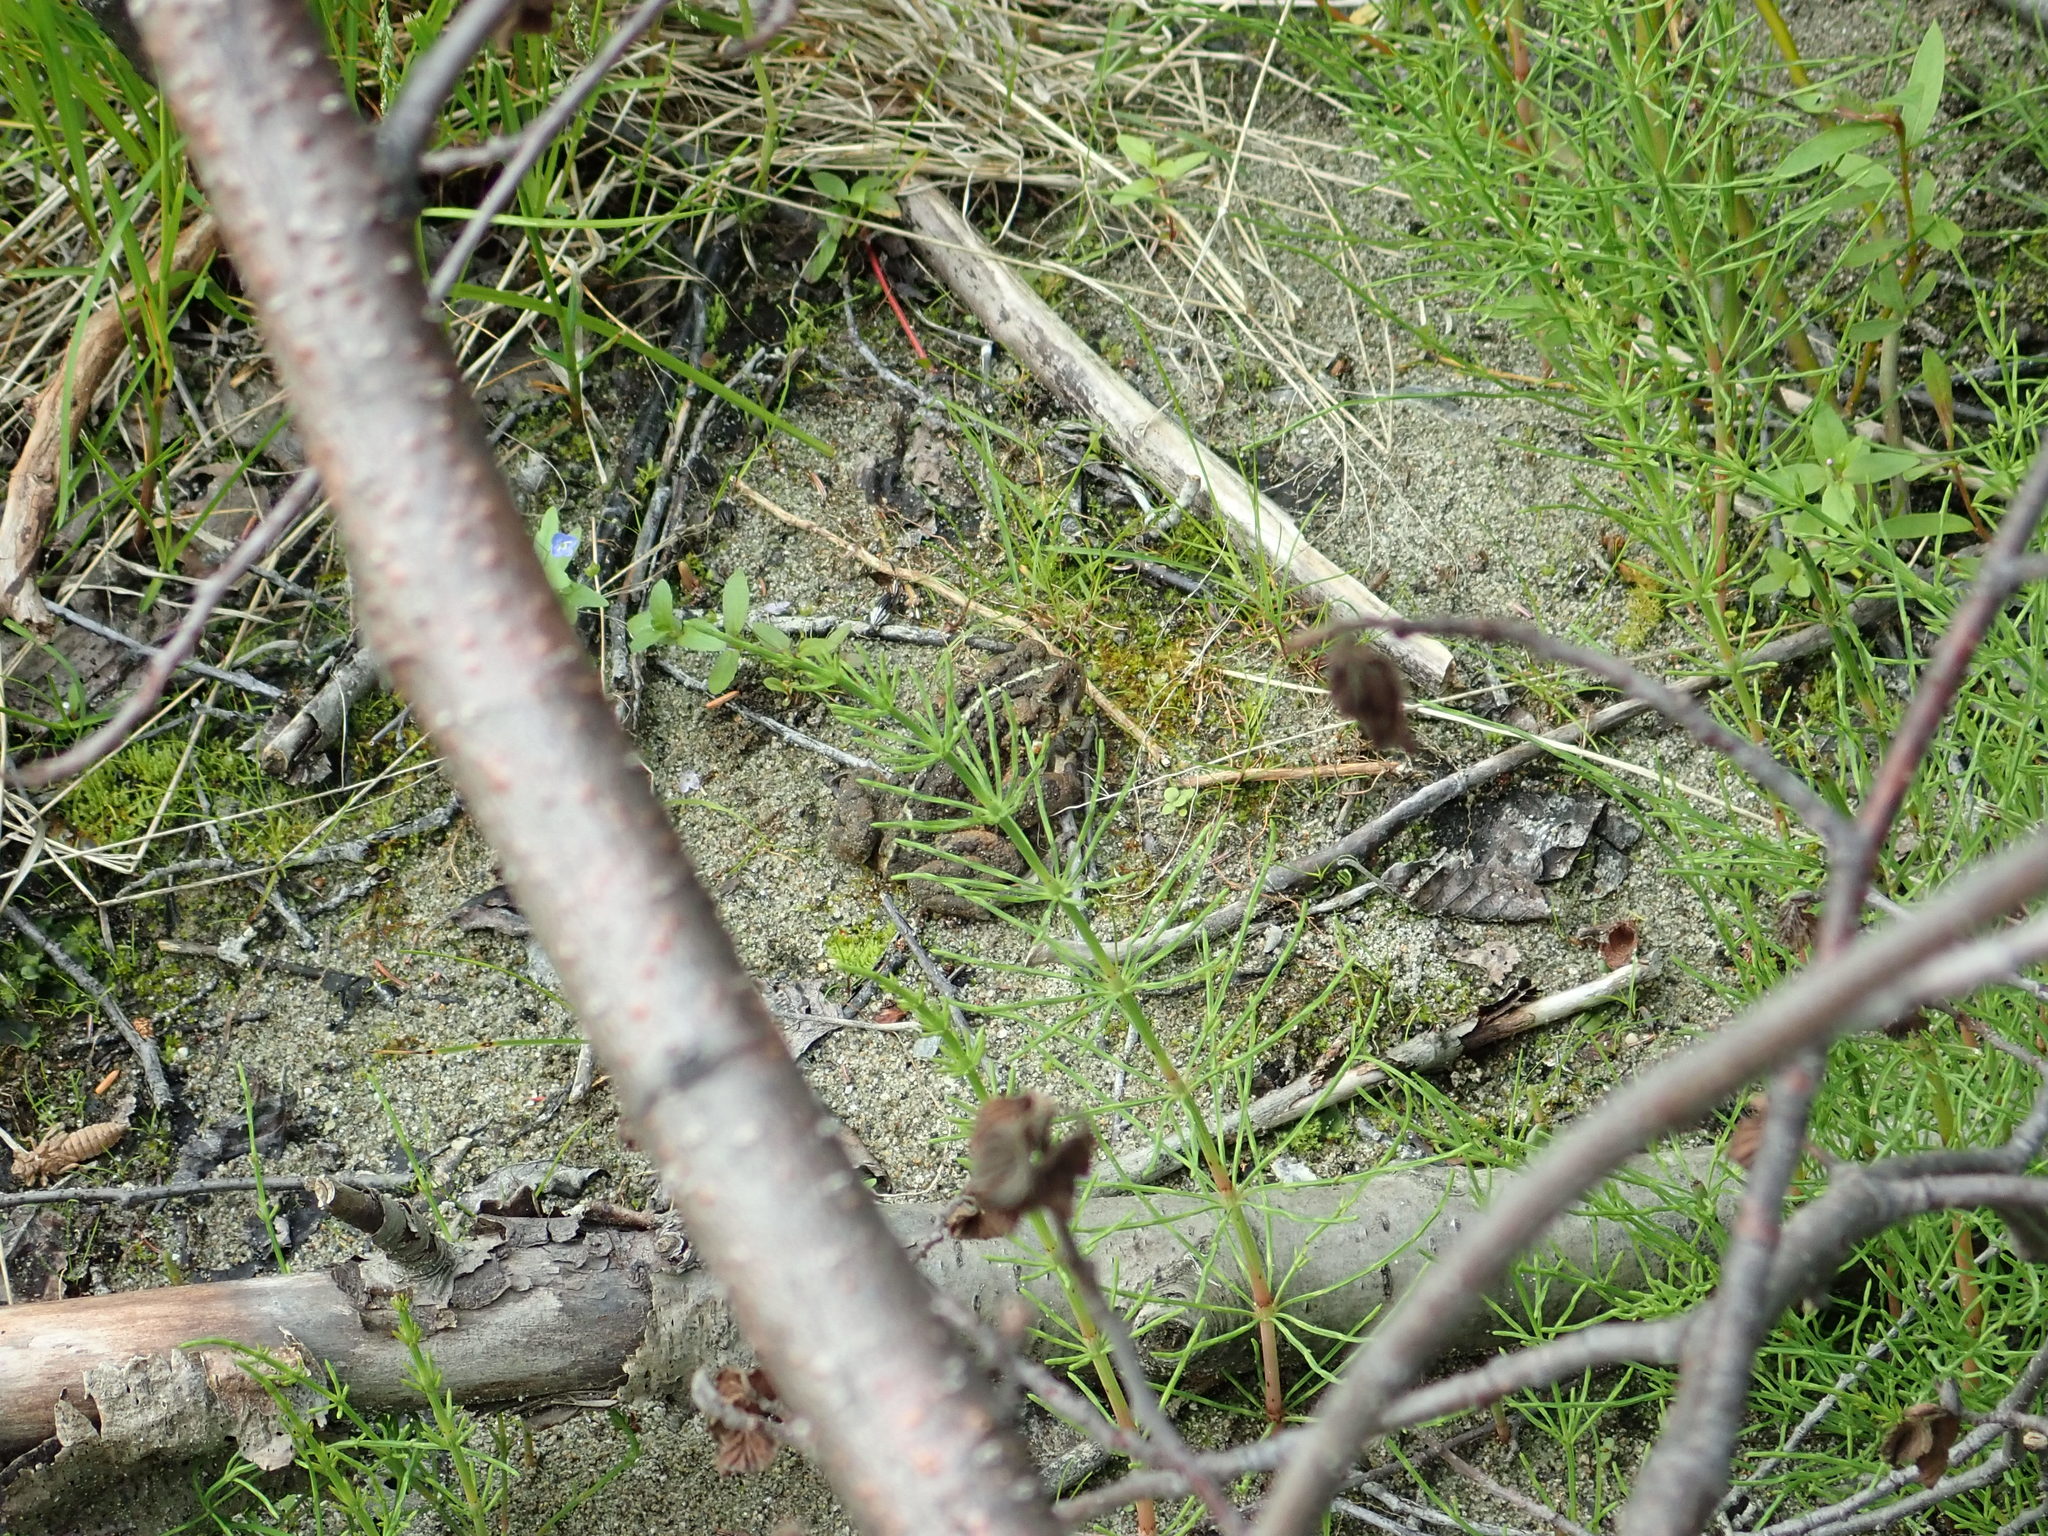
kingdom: Animalia
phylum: Chordata
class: Amphibia
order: Anura
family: Bufonidae
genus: Anaxyrus
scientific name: Anaxyrus boreas
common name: Western toad
